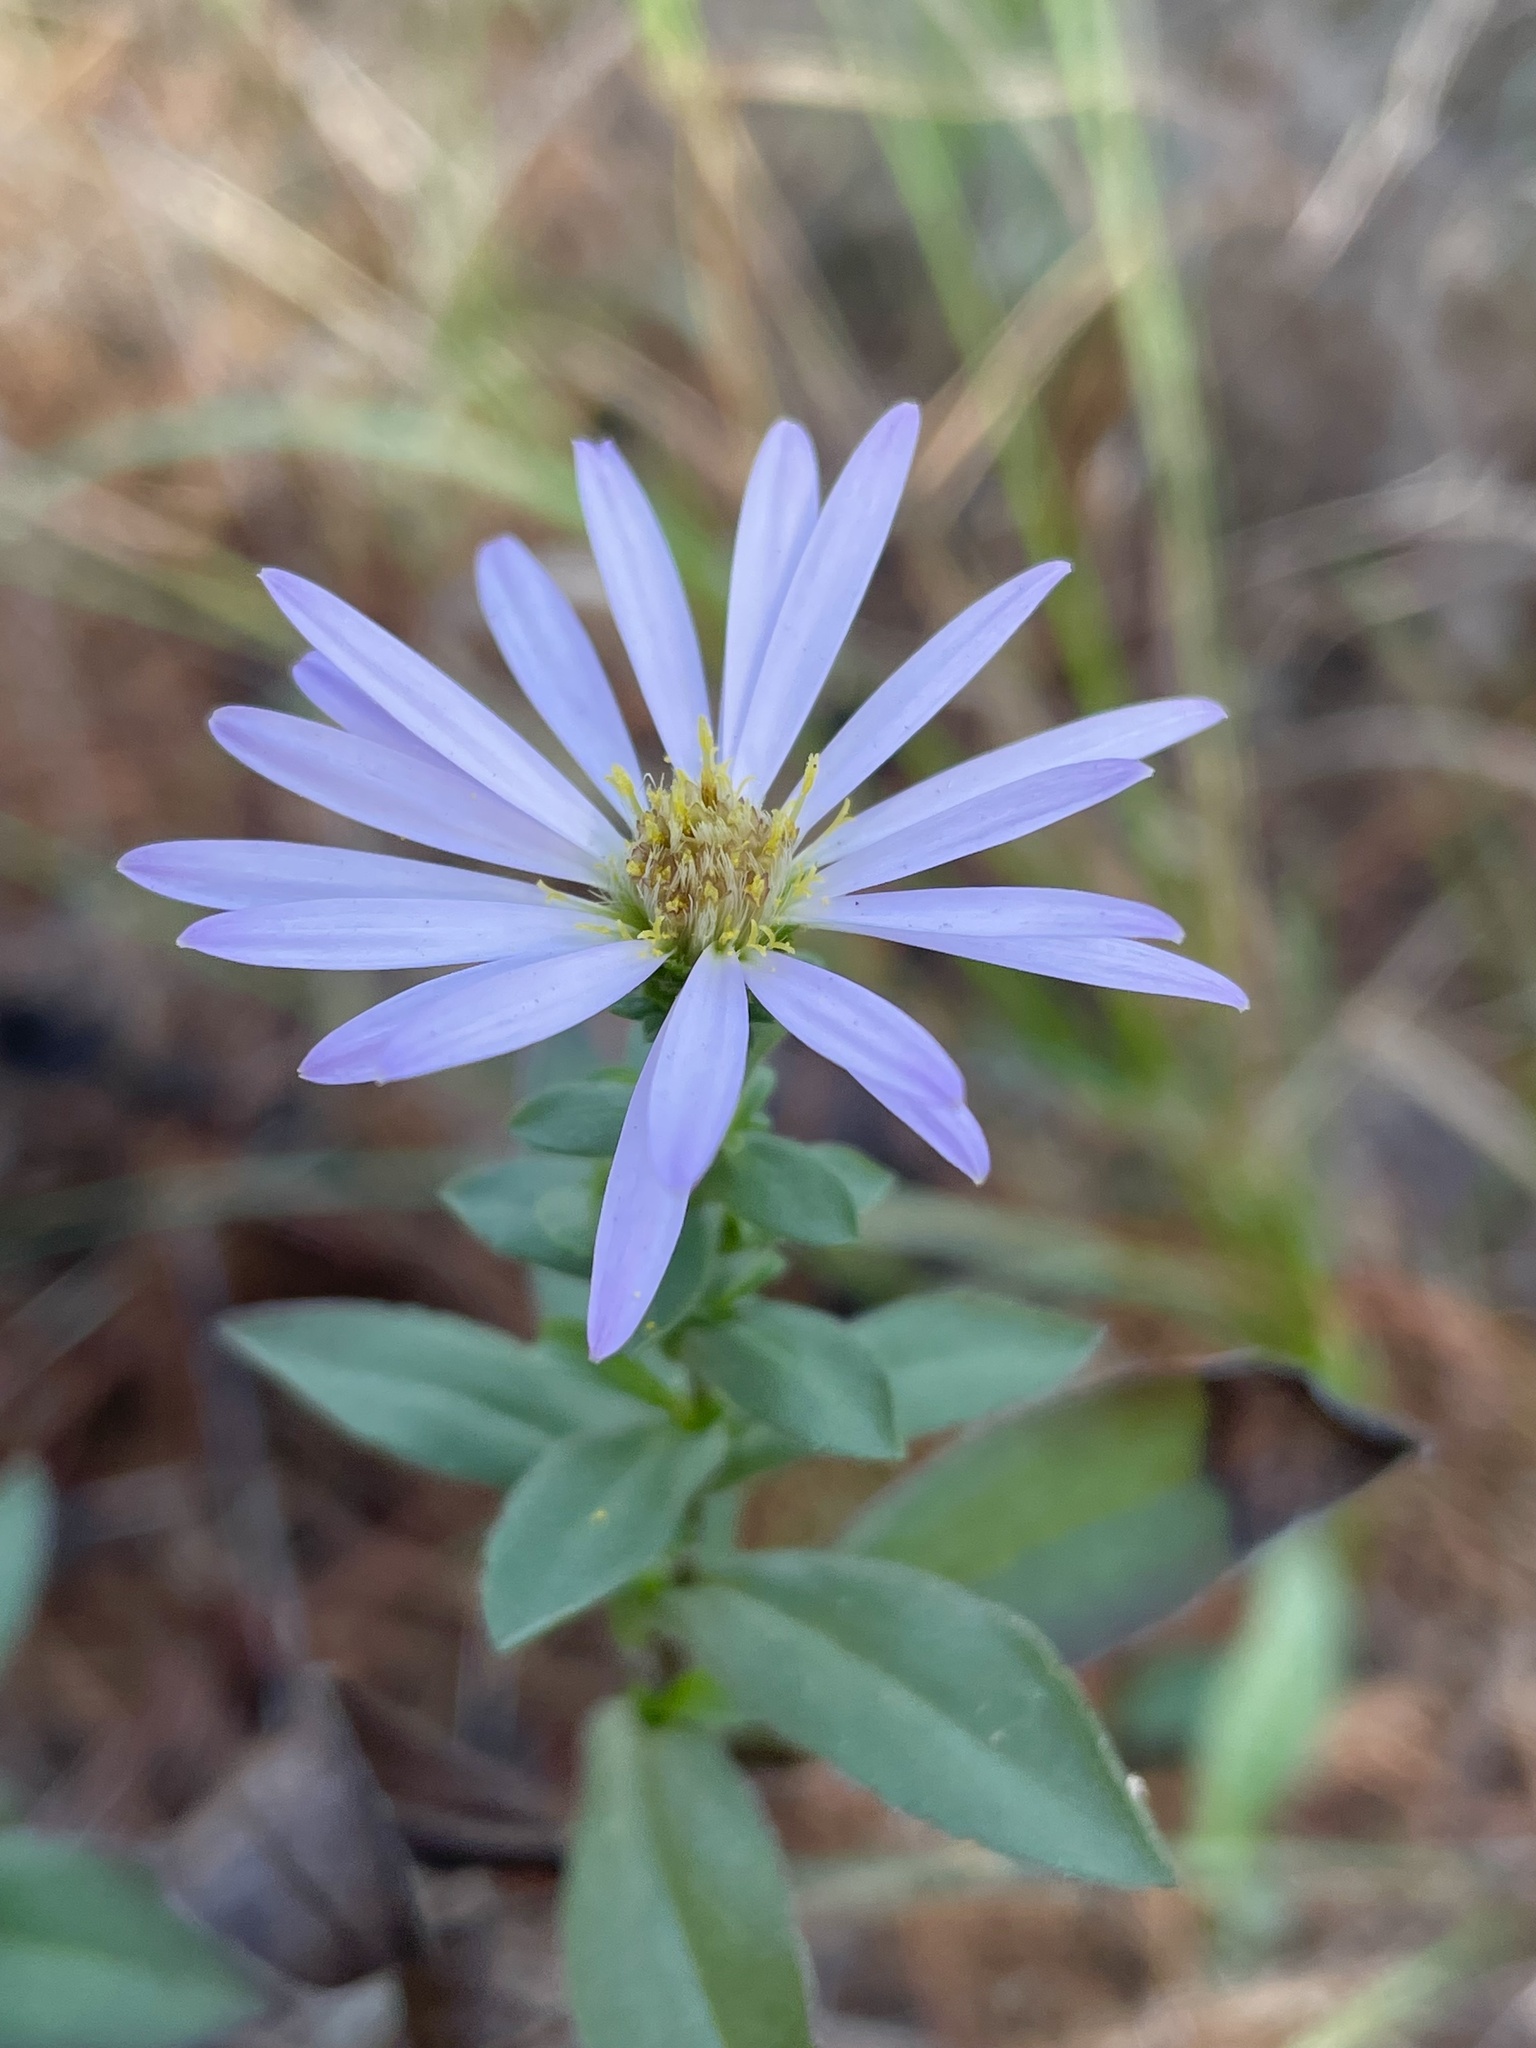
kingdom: Plantae
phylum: Tracheophyta
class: Magnoliopsida
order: Asterales
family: Asteraceae
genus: Symphyotrichum
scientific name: Symphyotrichum chilense
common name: Pacific aster
